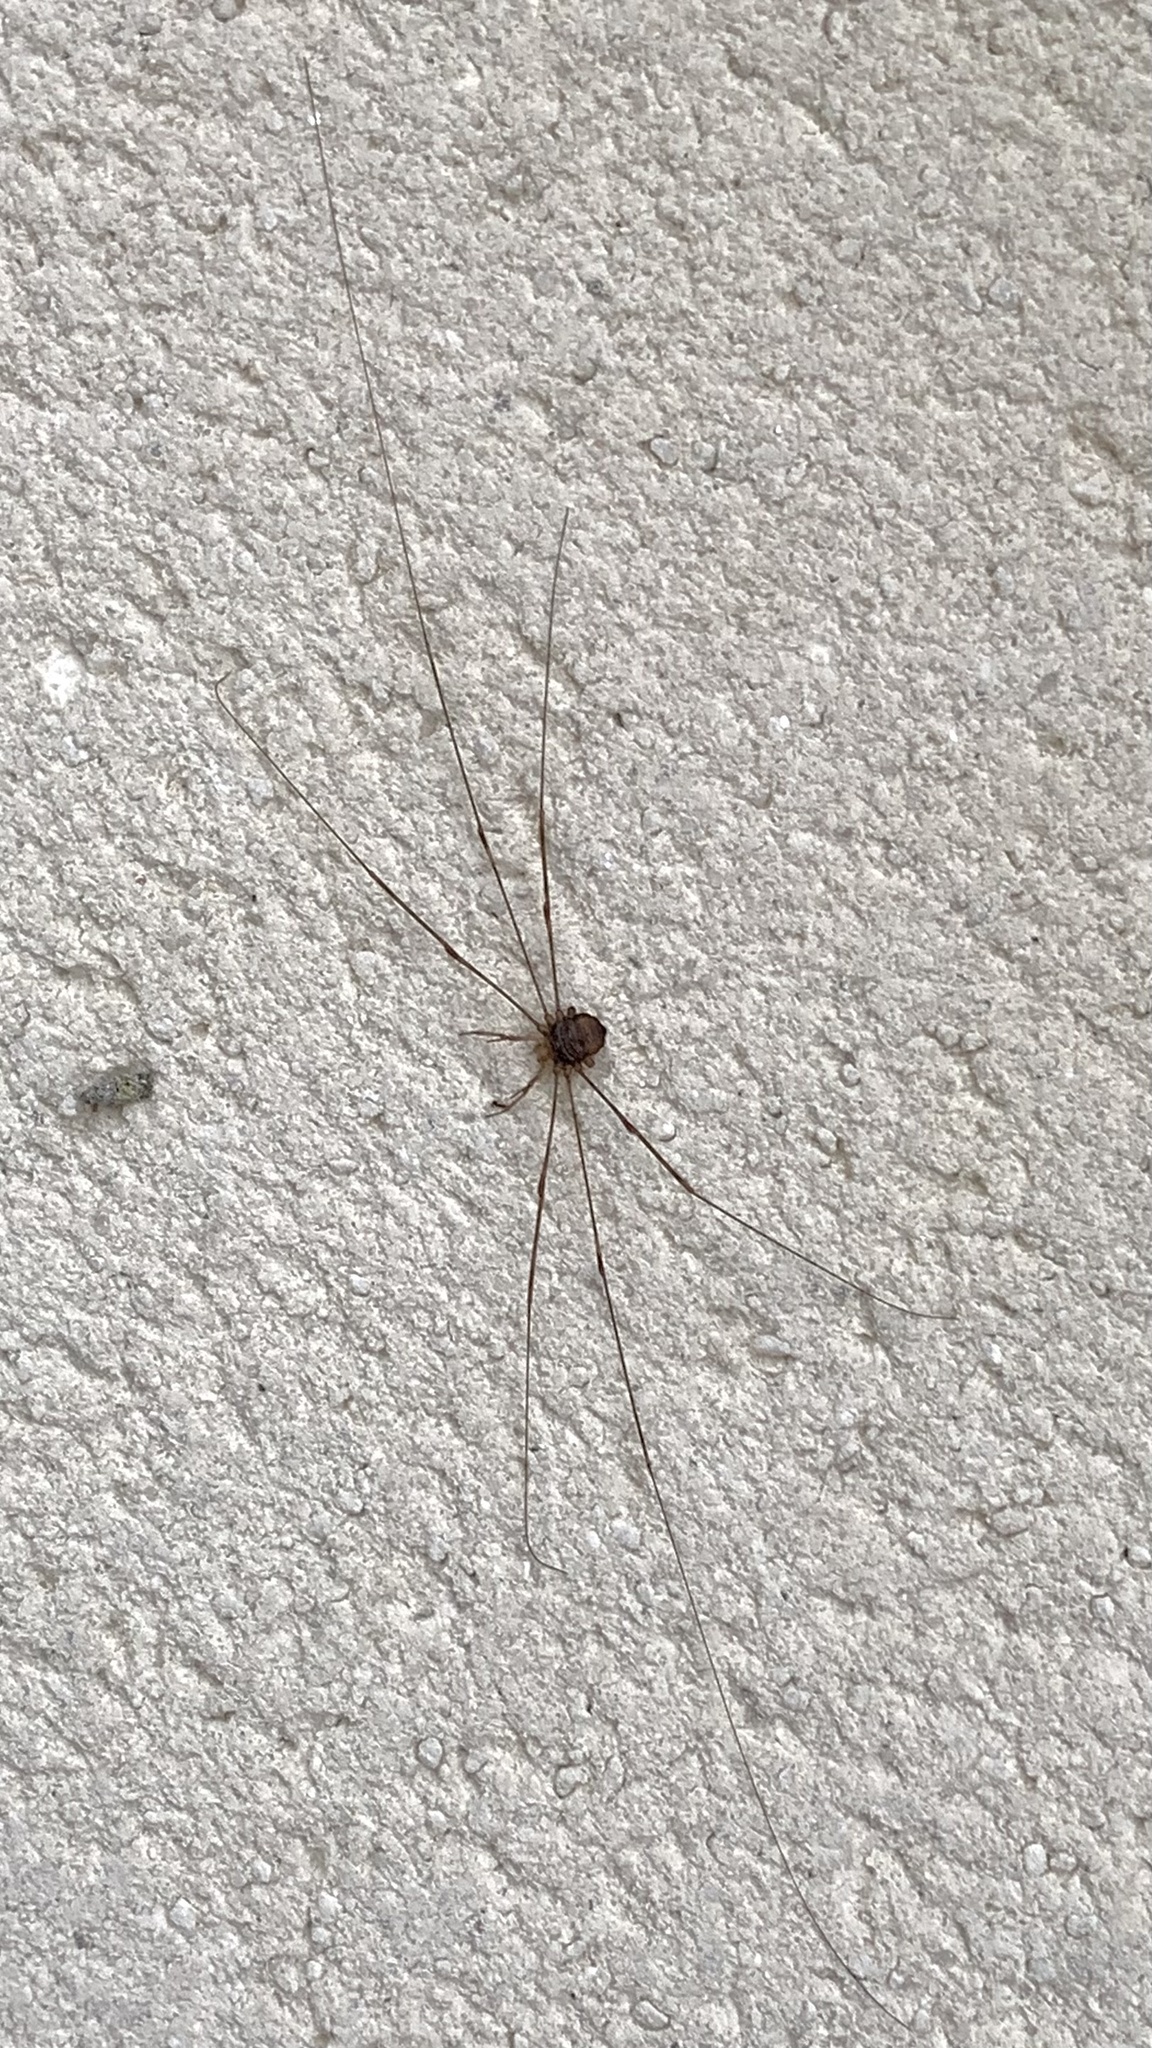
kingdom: Animalia
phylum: Arthropoda
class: Arachnida
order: Opiliones
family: Phalangiidae
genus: Dicranopalpus
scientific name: Dicranopalpus ramosus
